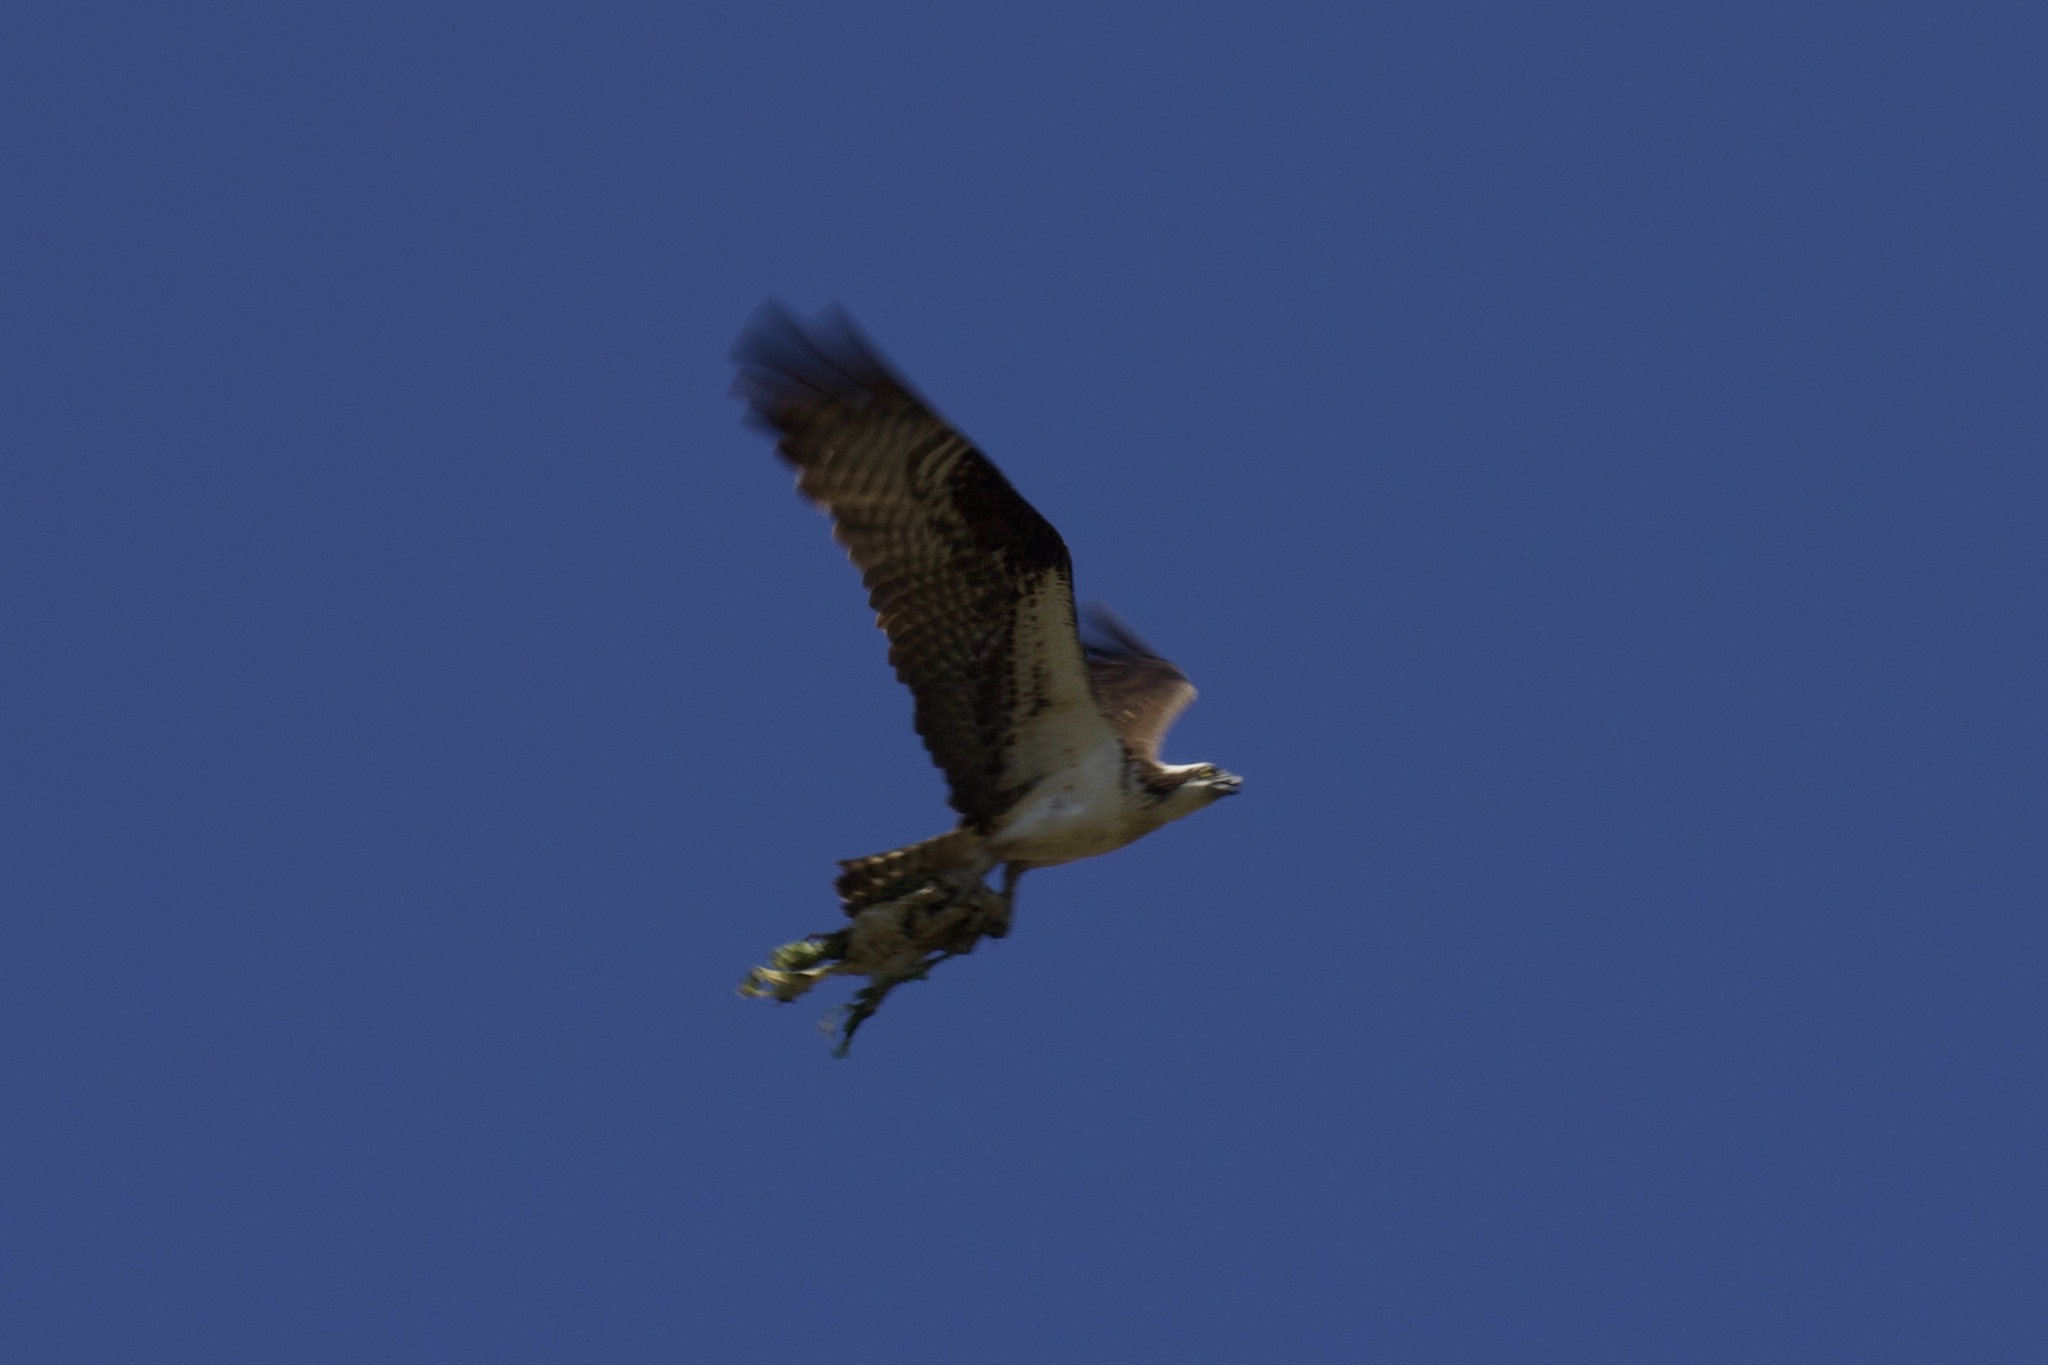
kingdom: Animalia
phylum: Chordata
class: Aves
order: Accipitriformes
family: Pandionidae
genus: Pandion
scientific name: Pandion haliaetus
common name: Osprey
